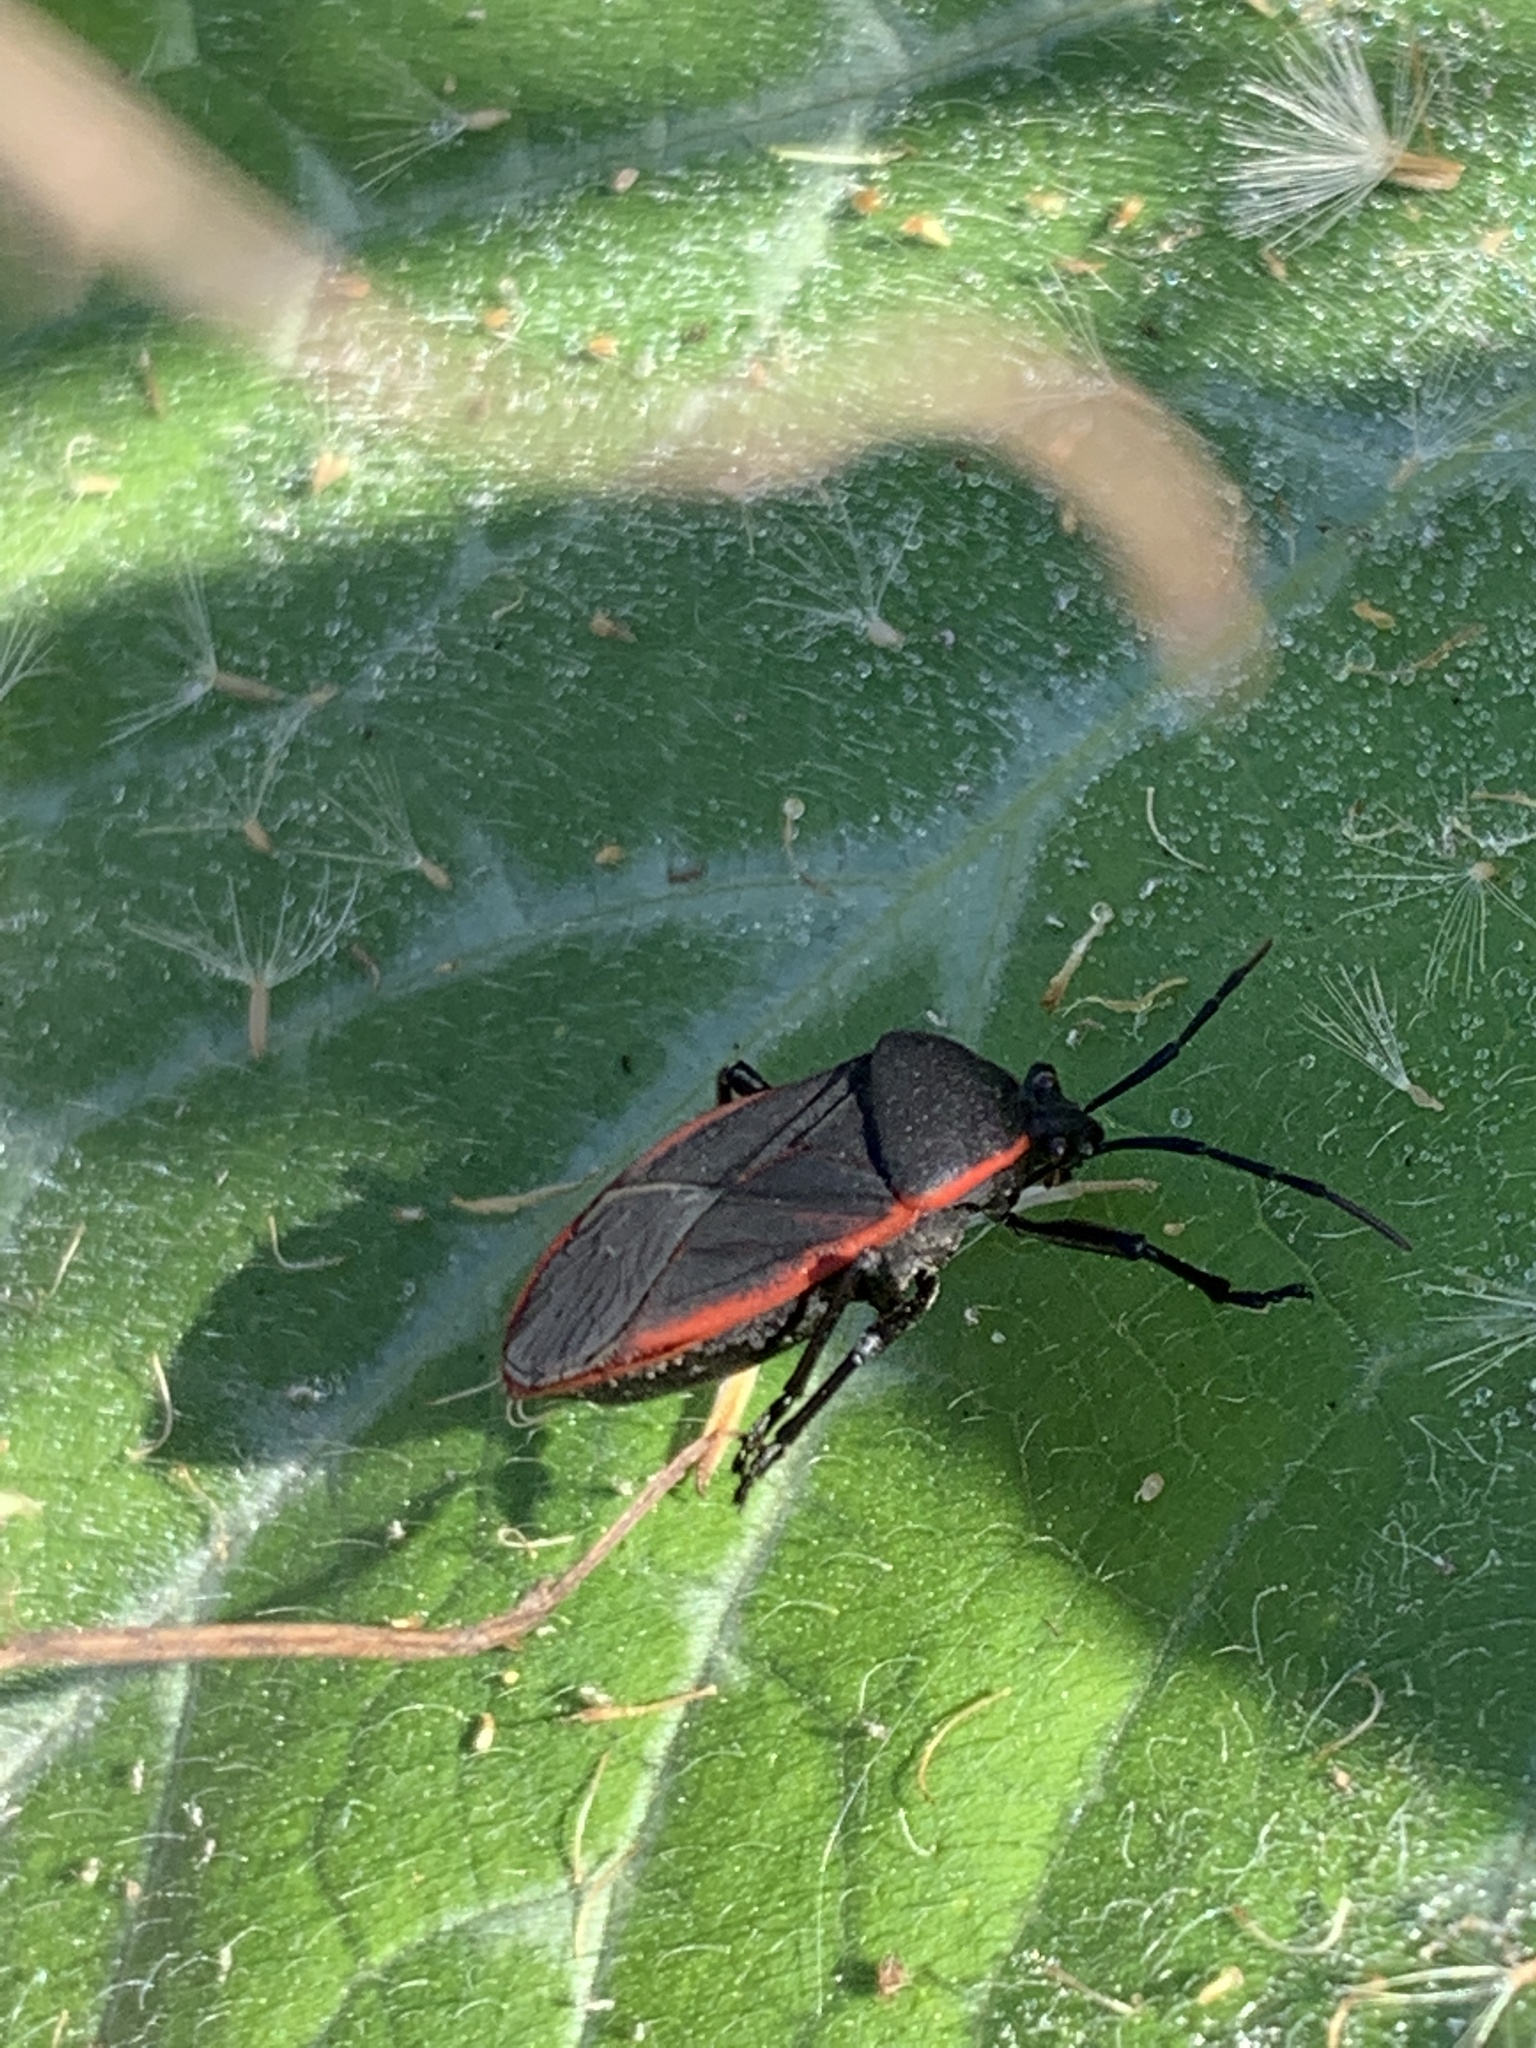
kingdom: Animalia
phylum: Arthropoda
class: Insecta
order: Hemiptera
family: Largidae
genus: Largus
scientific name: Largus rufipennis
